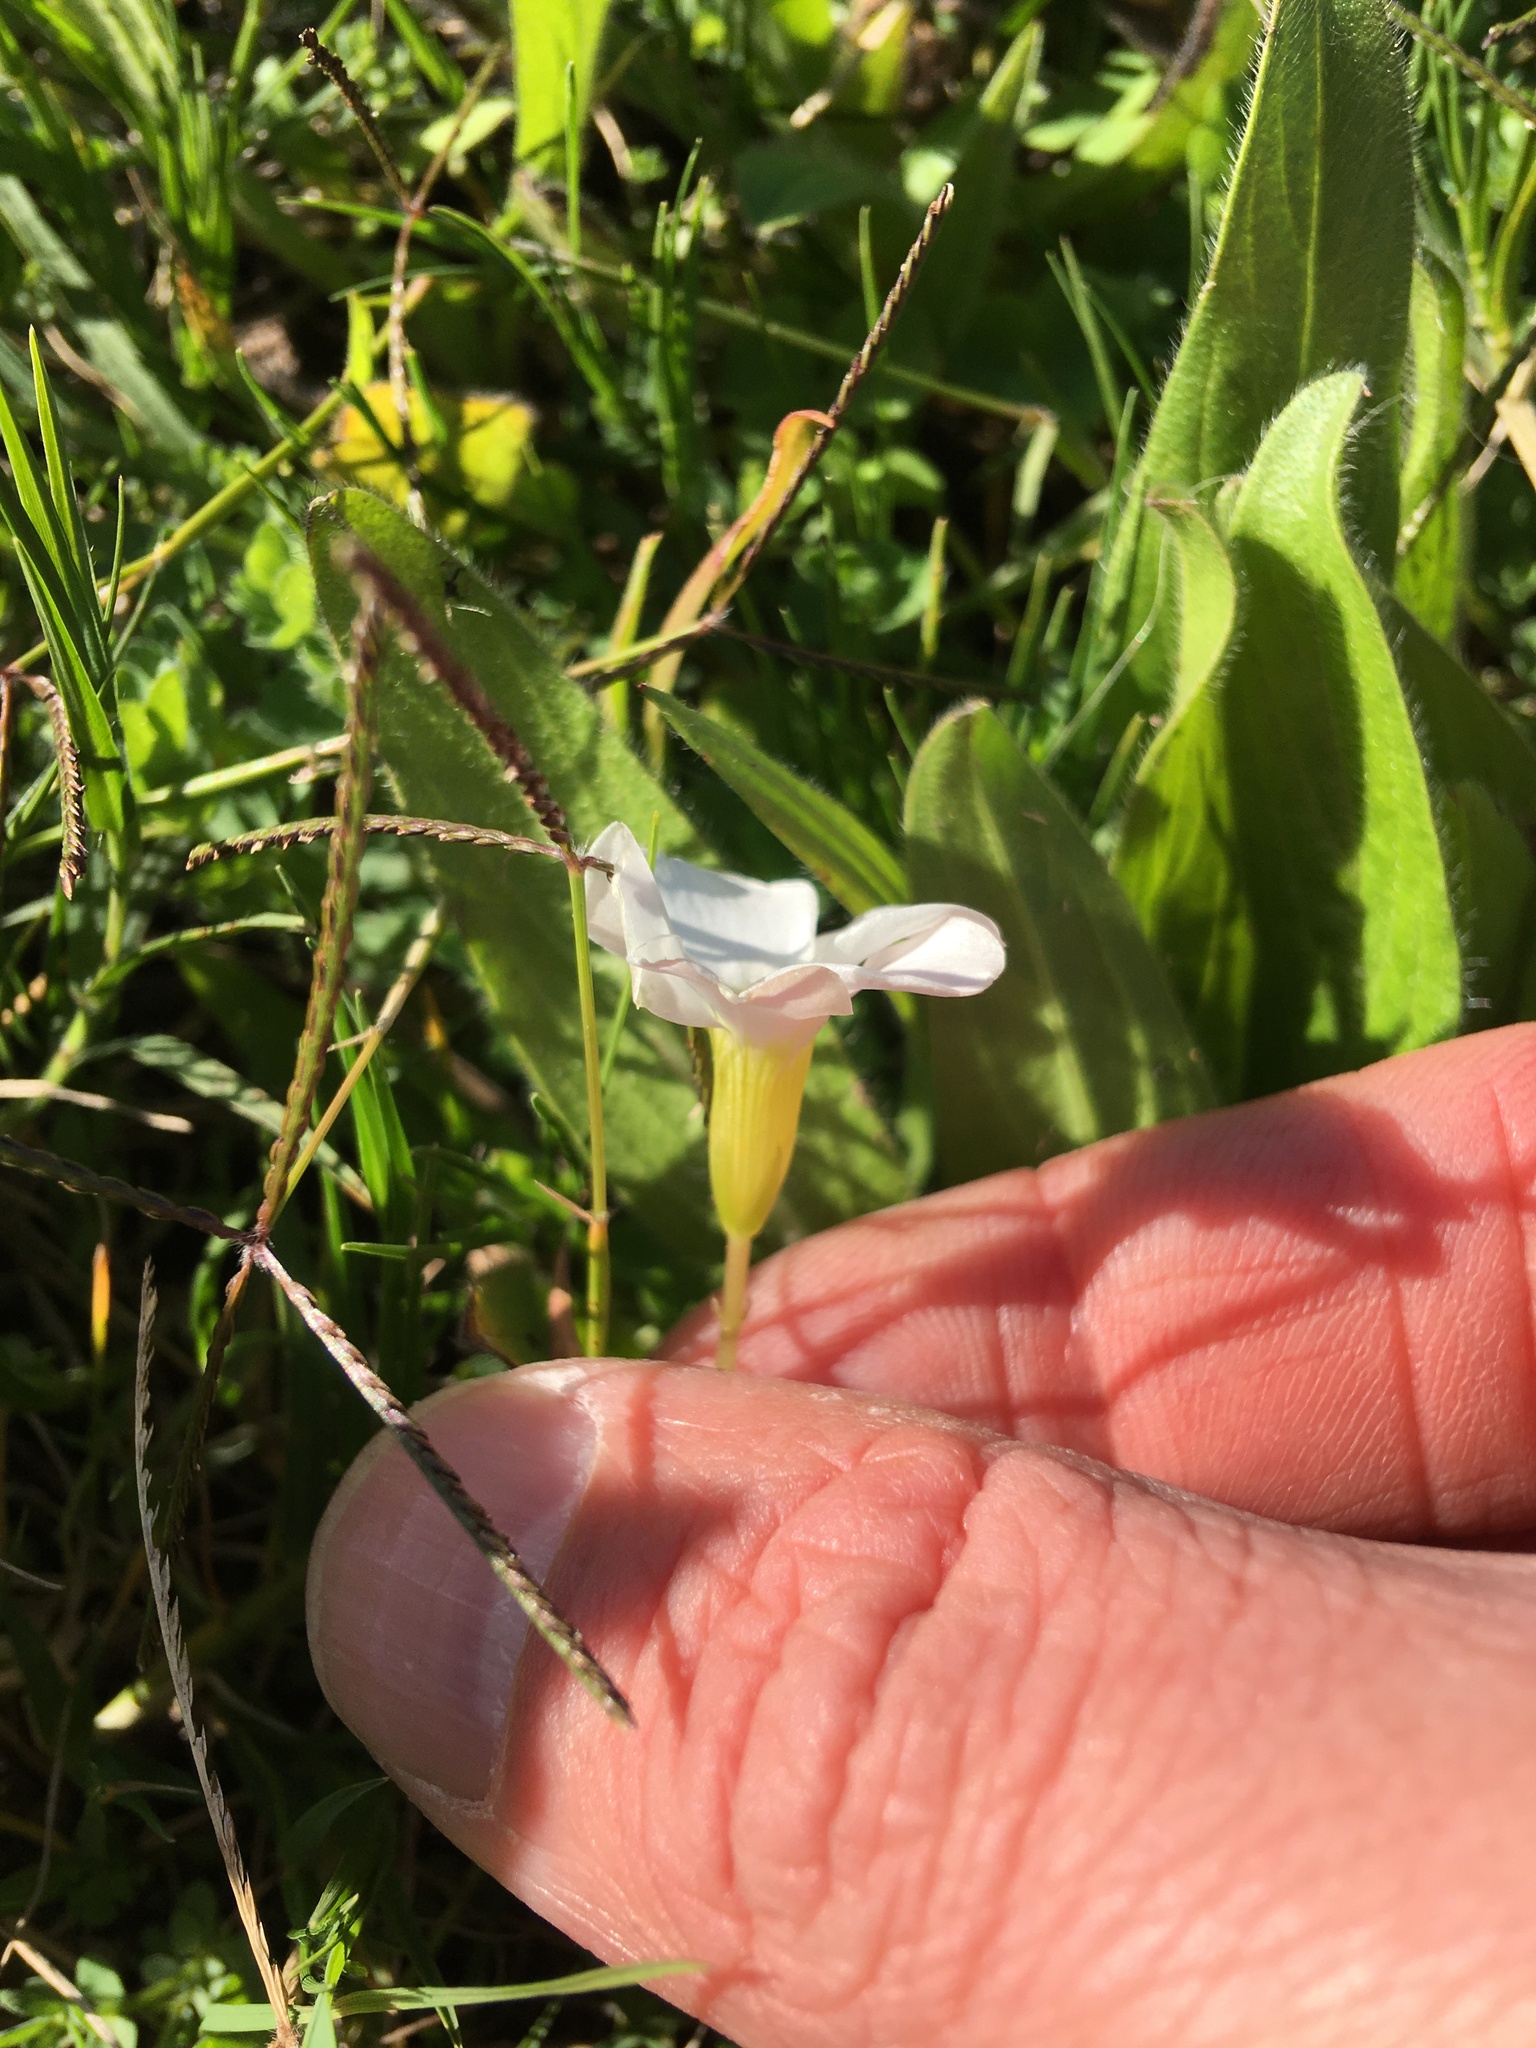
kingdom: Plantae
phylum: Tracheophyta
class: Magnoliopsida
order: Oxalidales
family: Oxalidaceae
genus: Oxalis
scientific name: Oxalis minuta
